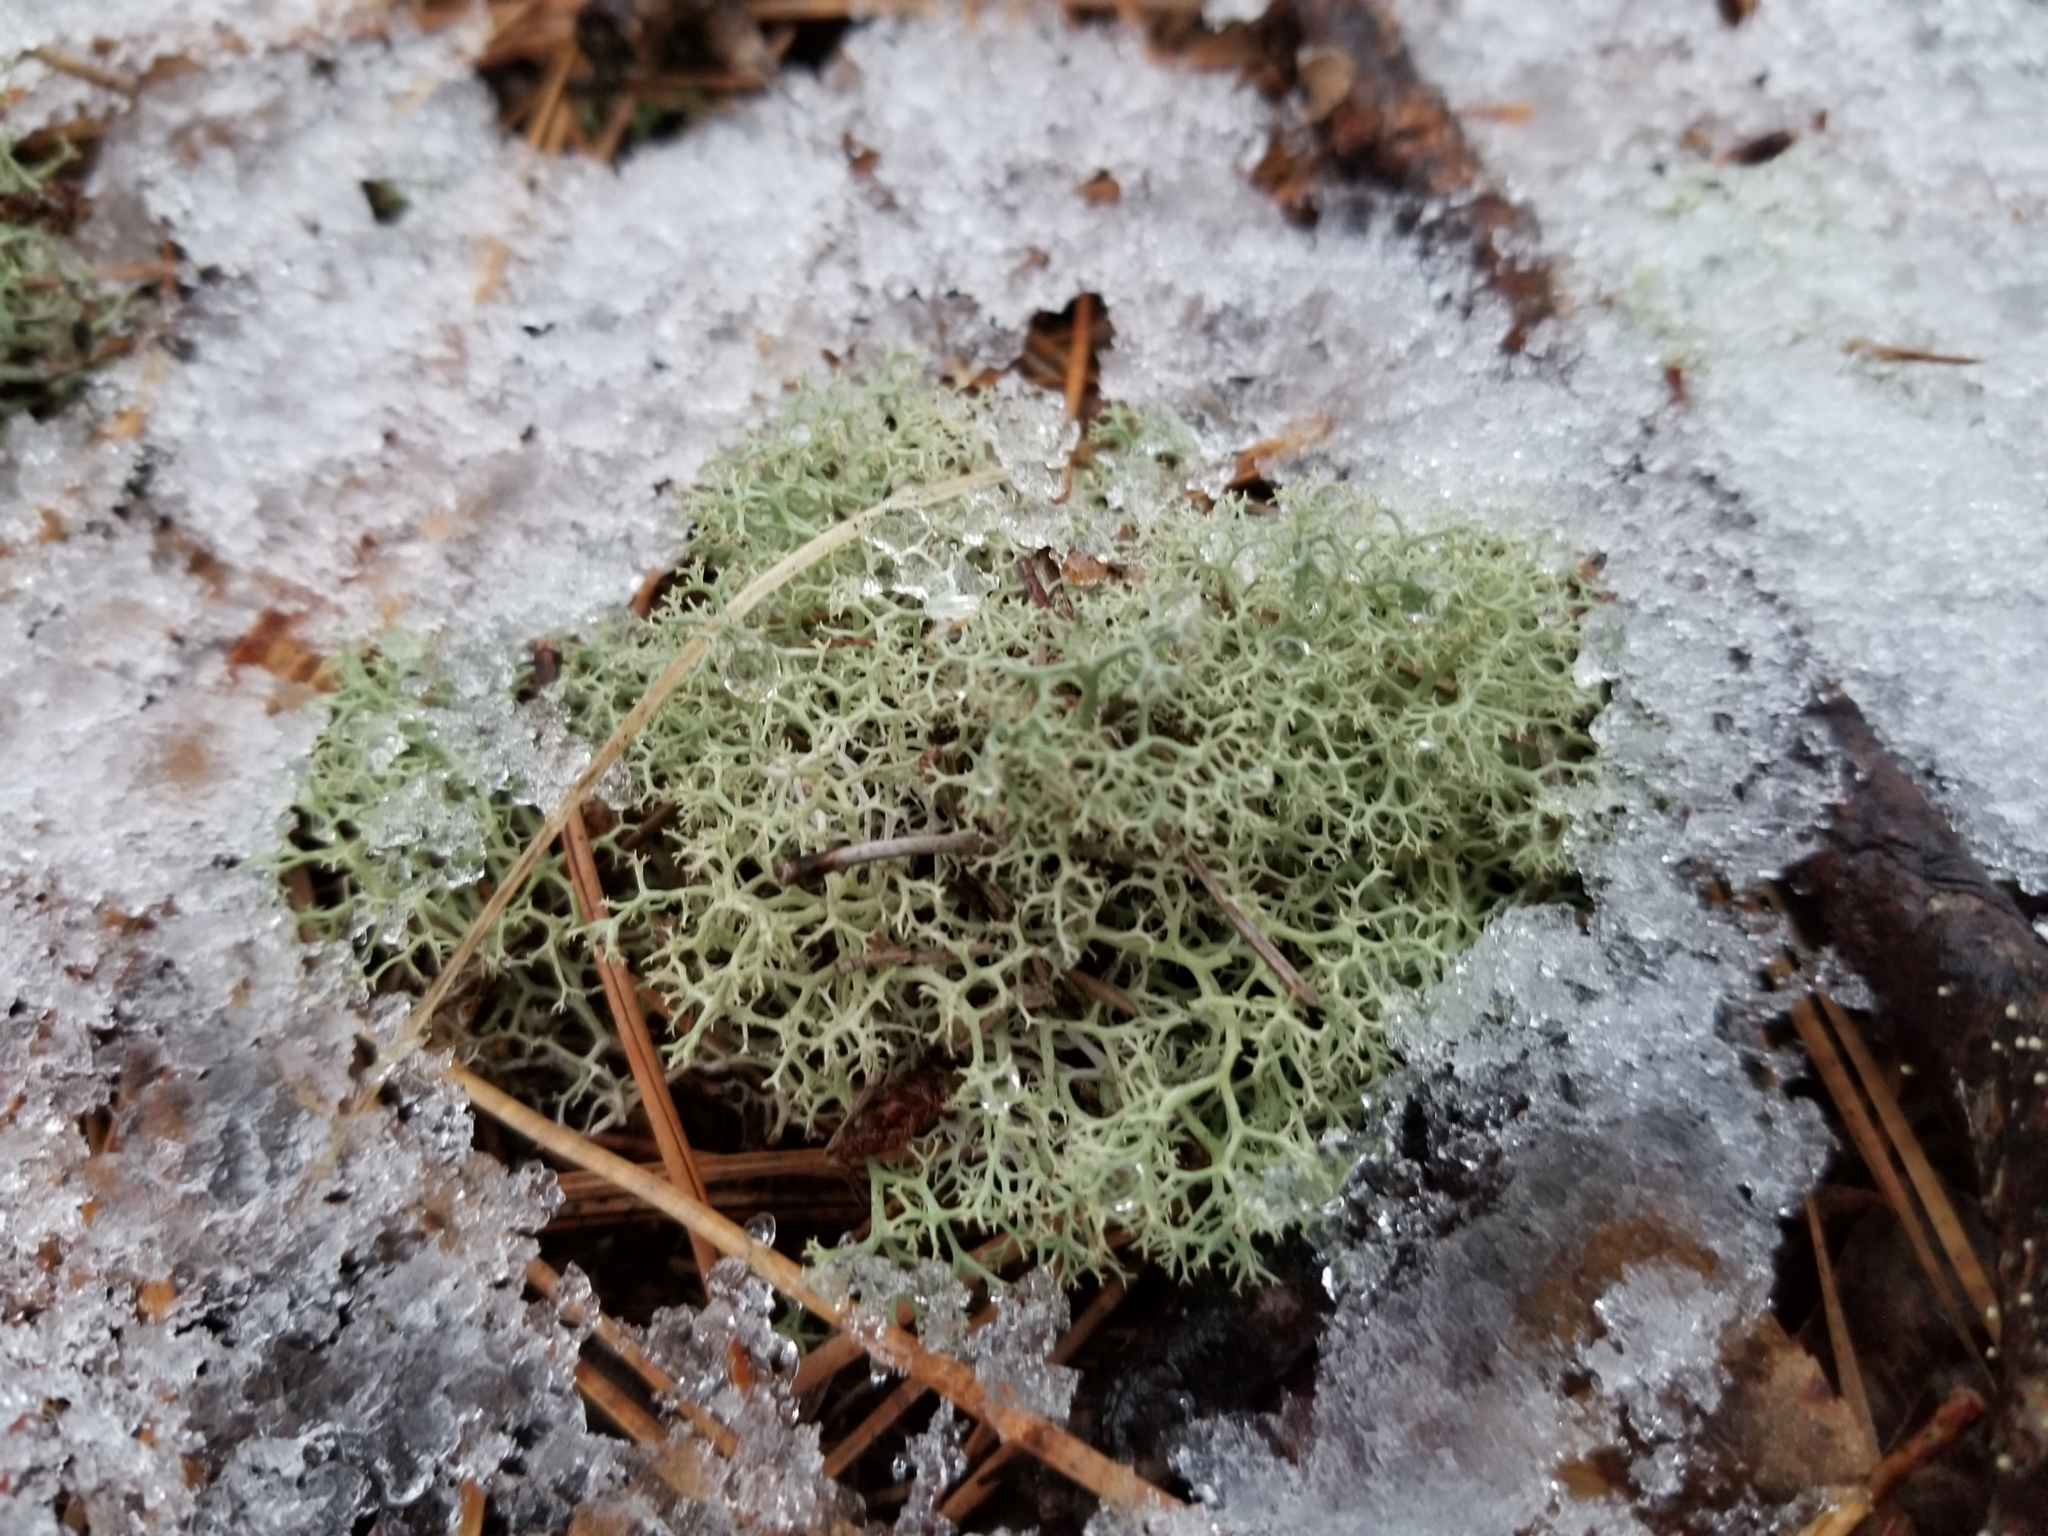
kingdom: Fungi
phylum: Ascomycota
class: Lecanoromycetes
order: Lecanorales
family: Cladoniaceae
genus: Cladonia
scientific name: Cladonia subtenuis
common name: Dixie reindeer lichen
